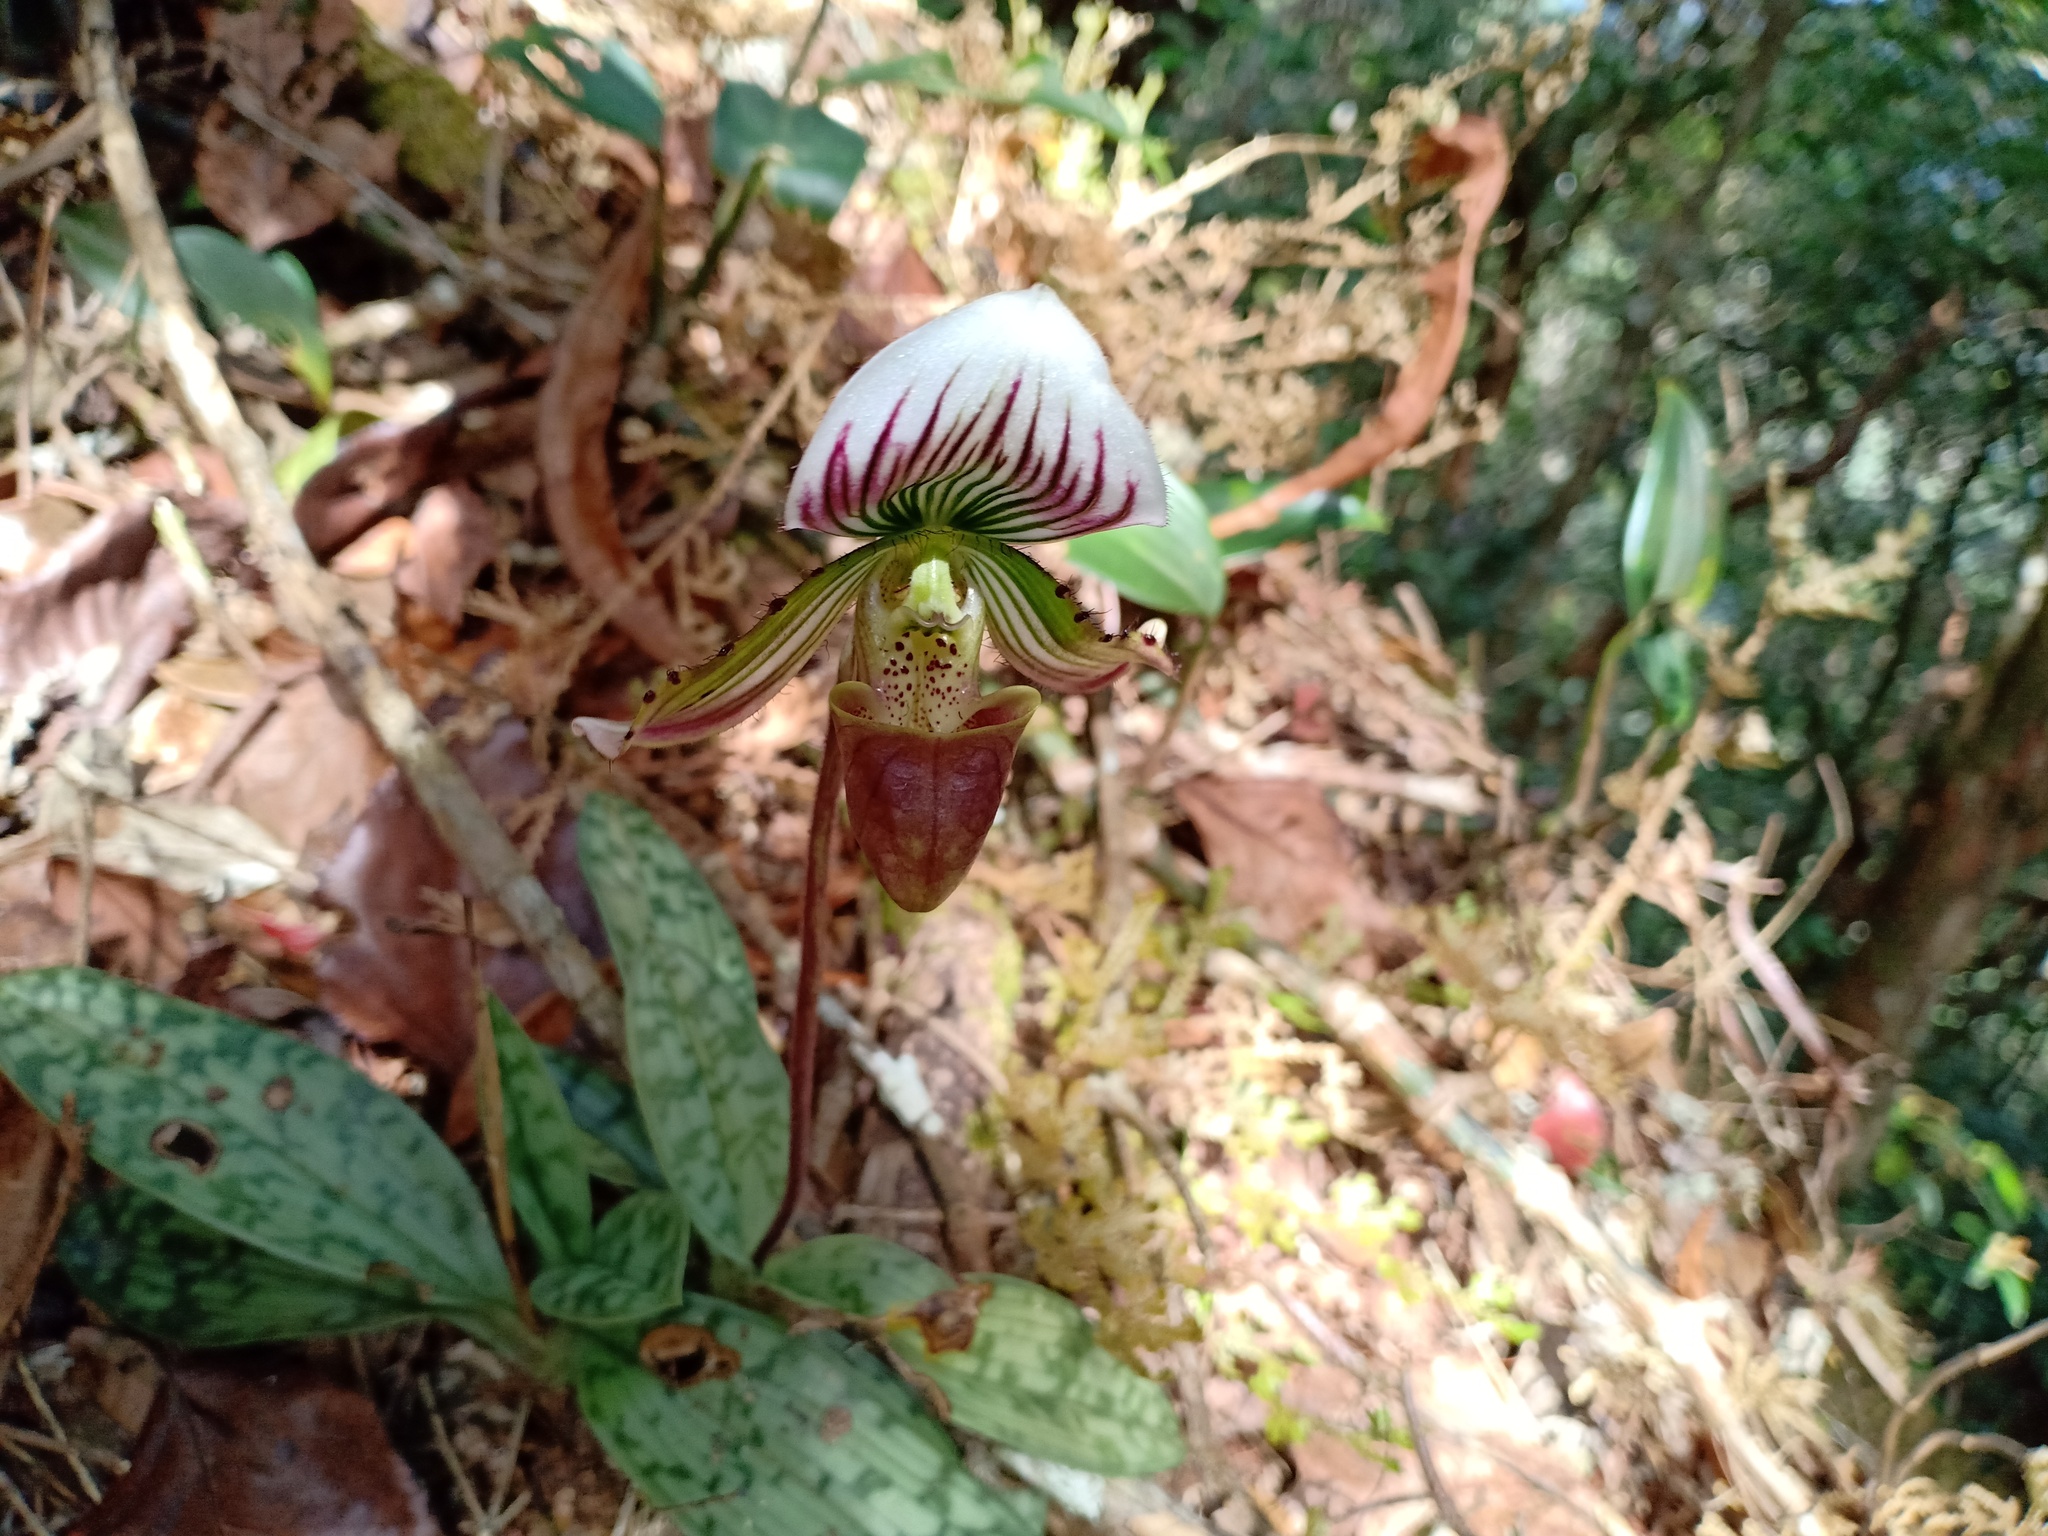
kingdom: Plantae
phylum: Tracheophyta
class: Liliopsida
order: Asparagales
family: Orchidaceae
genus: Paphiopedilum
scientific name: Paphiopedilum callosum
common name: Callus paphiopedilum
